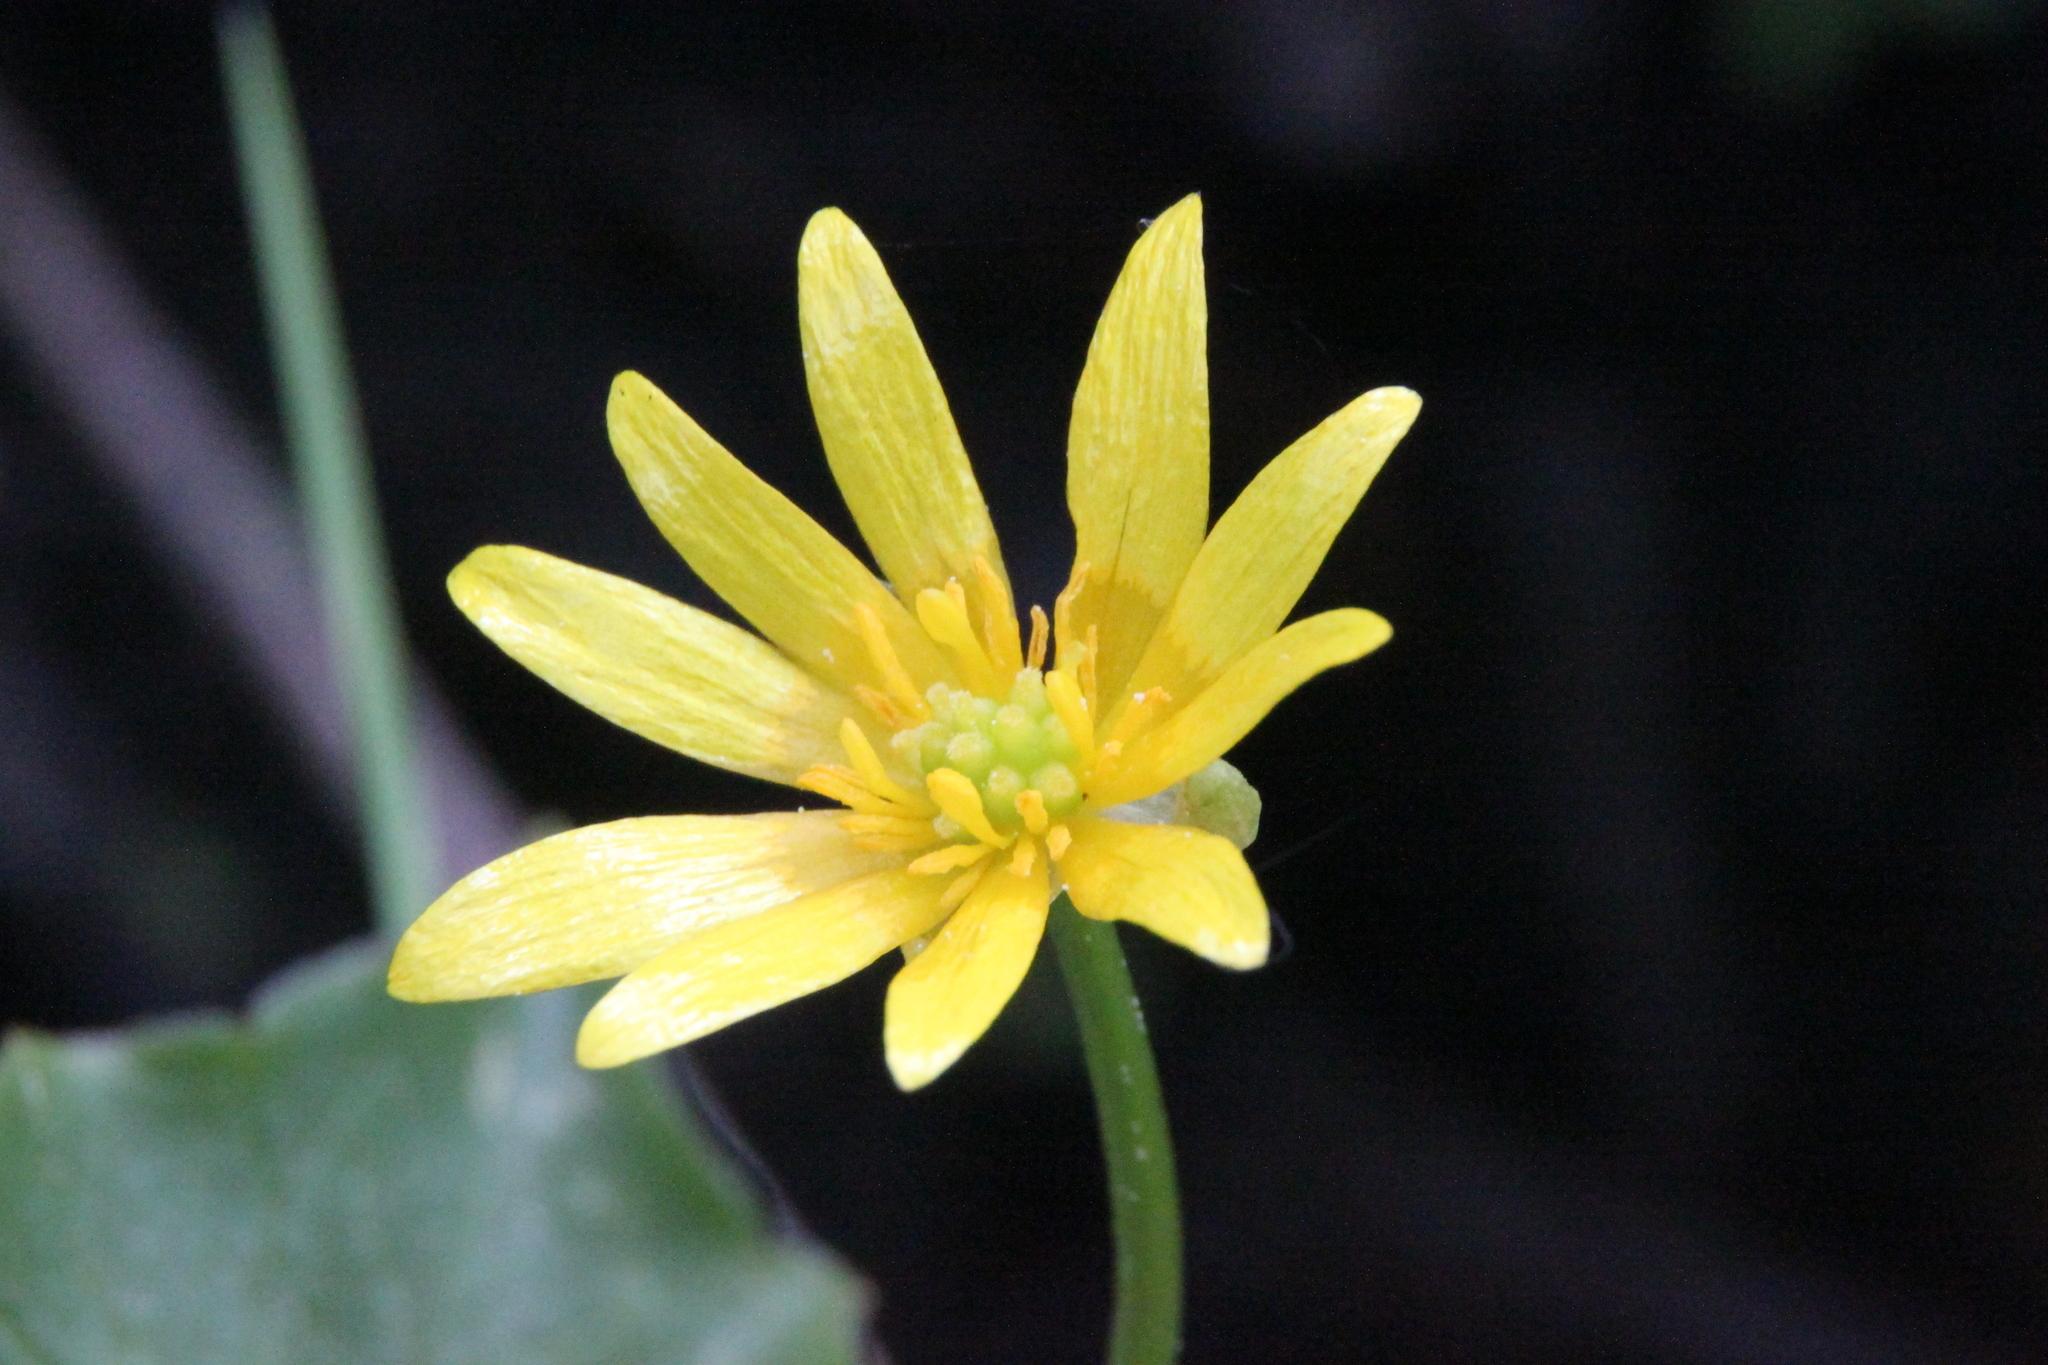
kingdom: Plantae
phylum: Tracheophyta
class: Magnoliopsida
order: Ranunculales
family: Ranunculaceae
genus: Ficaria
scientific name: Ficaria verna
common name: Lesser celandine
